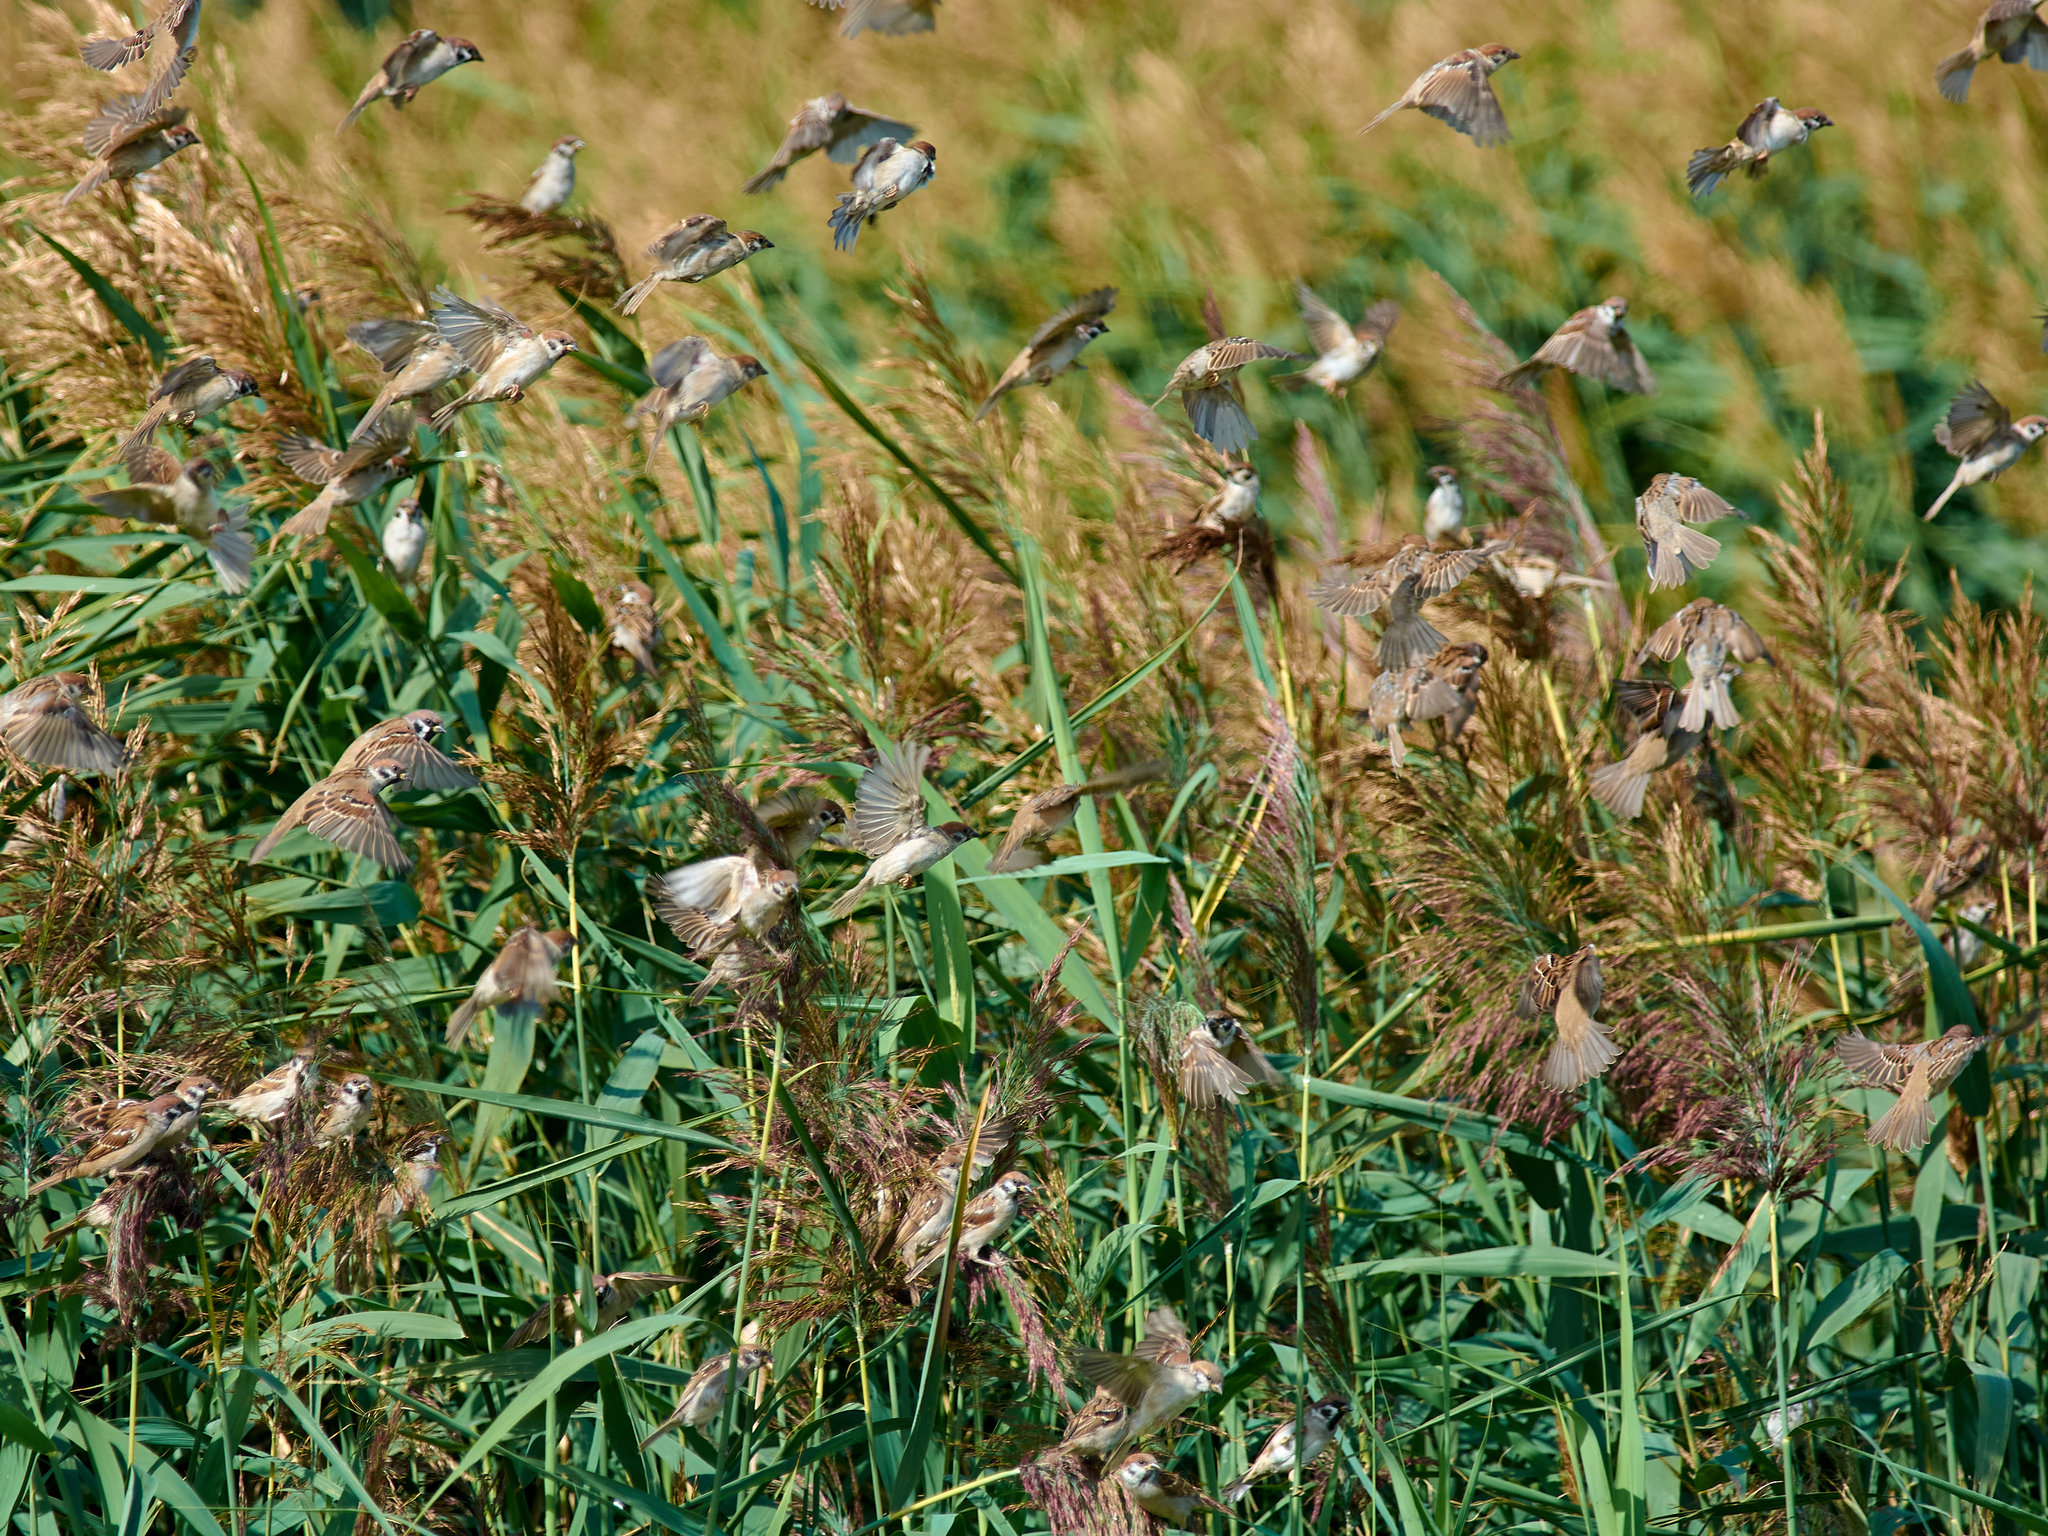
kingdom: Animalia
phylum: Chordata
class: Aves
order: Passeriformes
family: Passeridae
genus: Passer
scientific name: Passer montanus
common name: Eurasian tree sparrow
